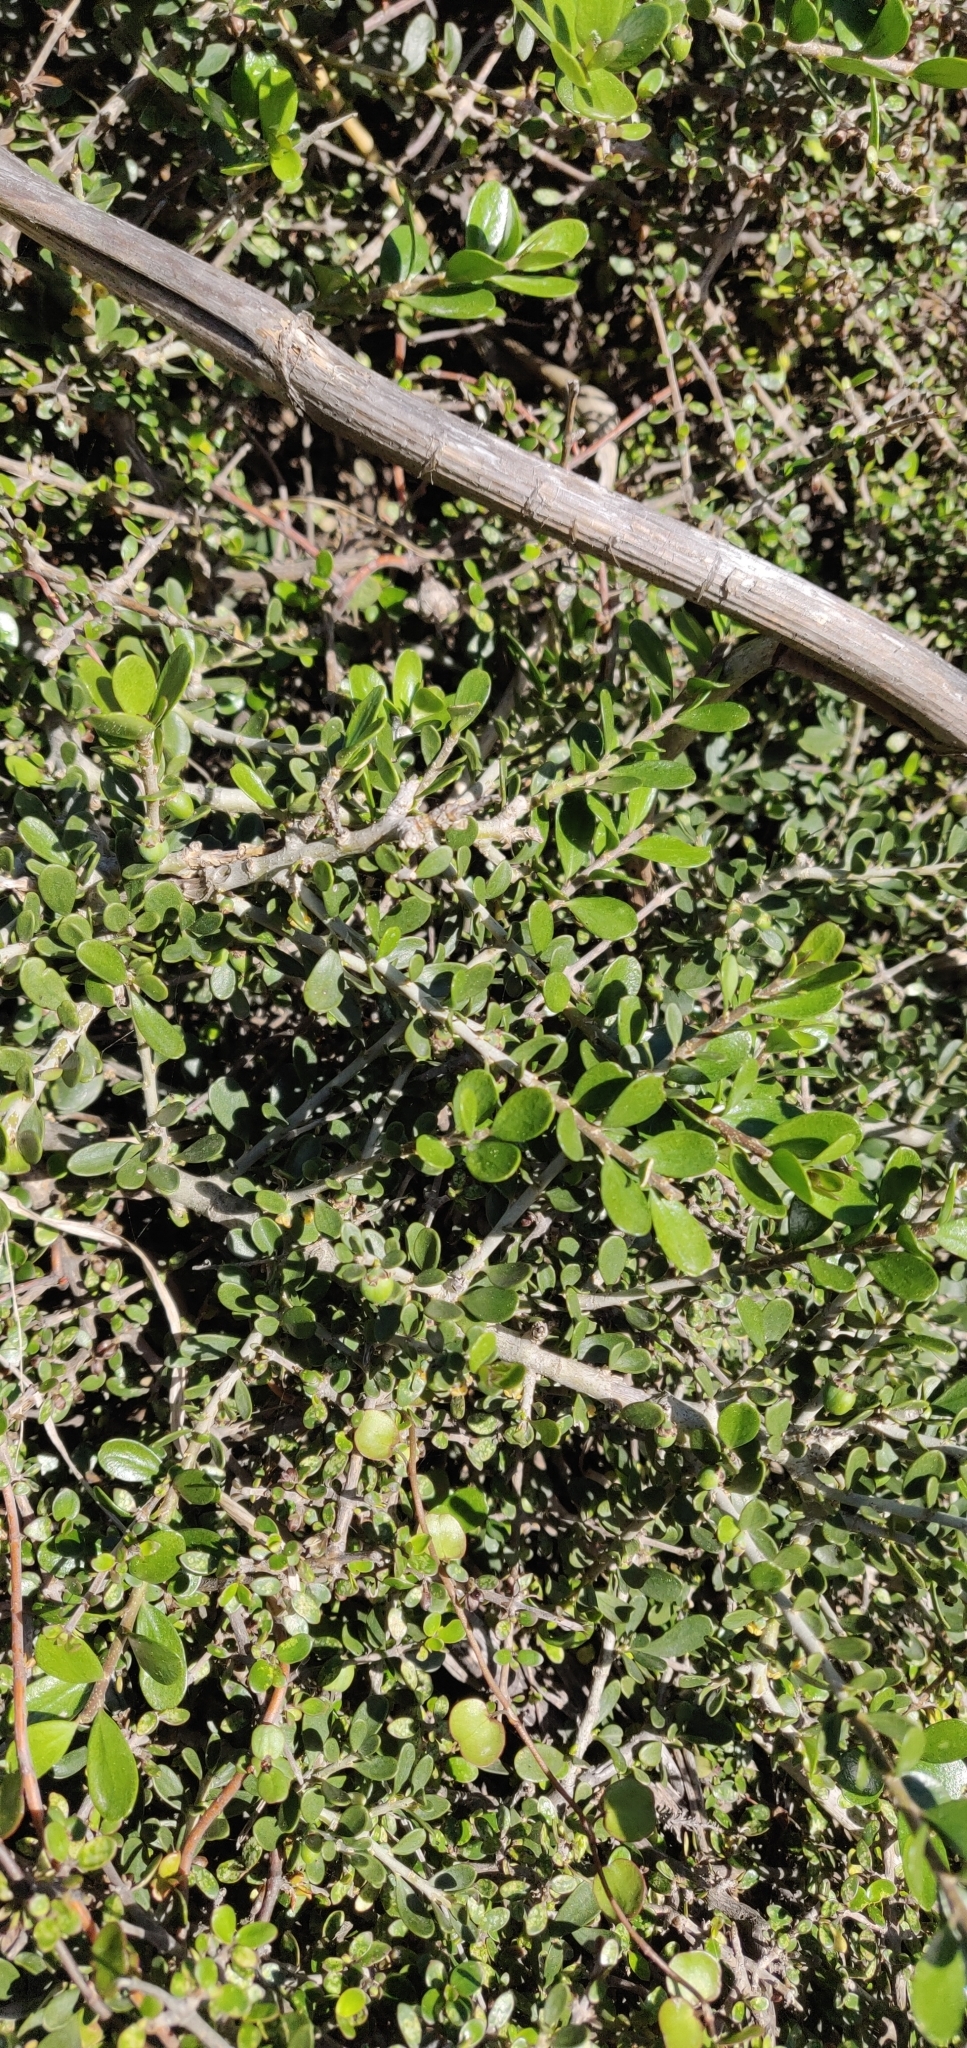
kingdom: Plantae
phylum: Tracheophyta
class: Magnoliopsida
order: Malpighiales
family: Violaceae
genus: Melicytus
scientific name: Melicytus crassifolius
